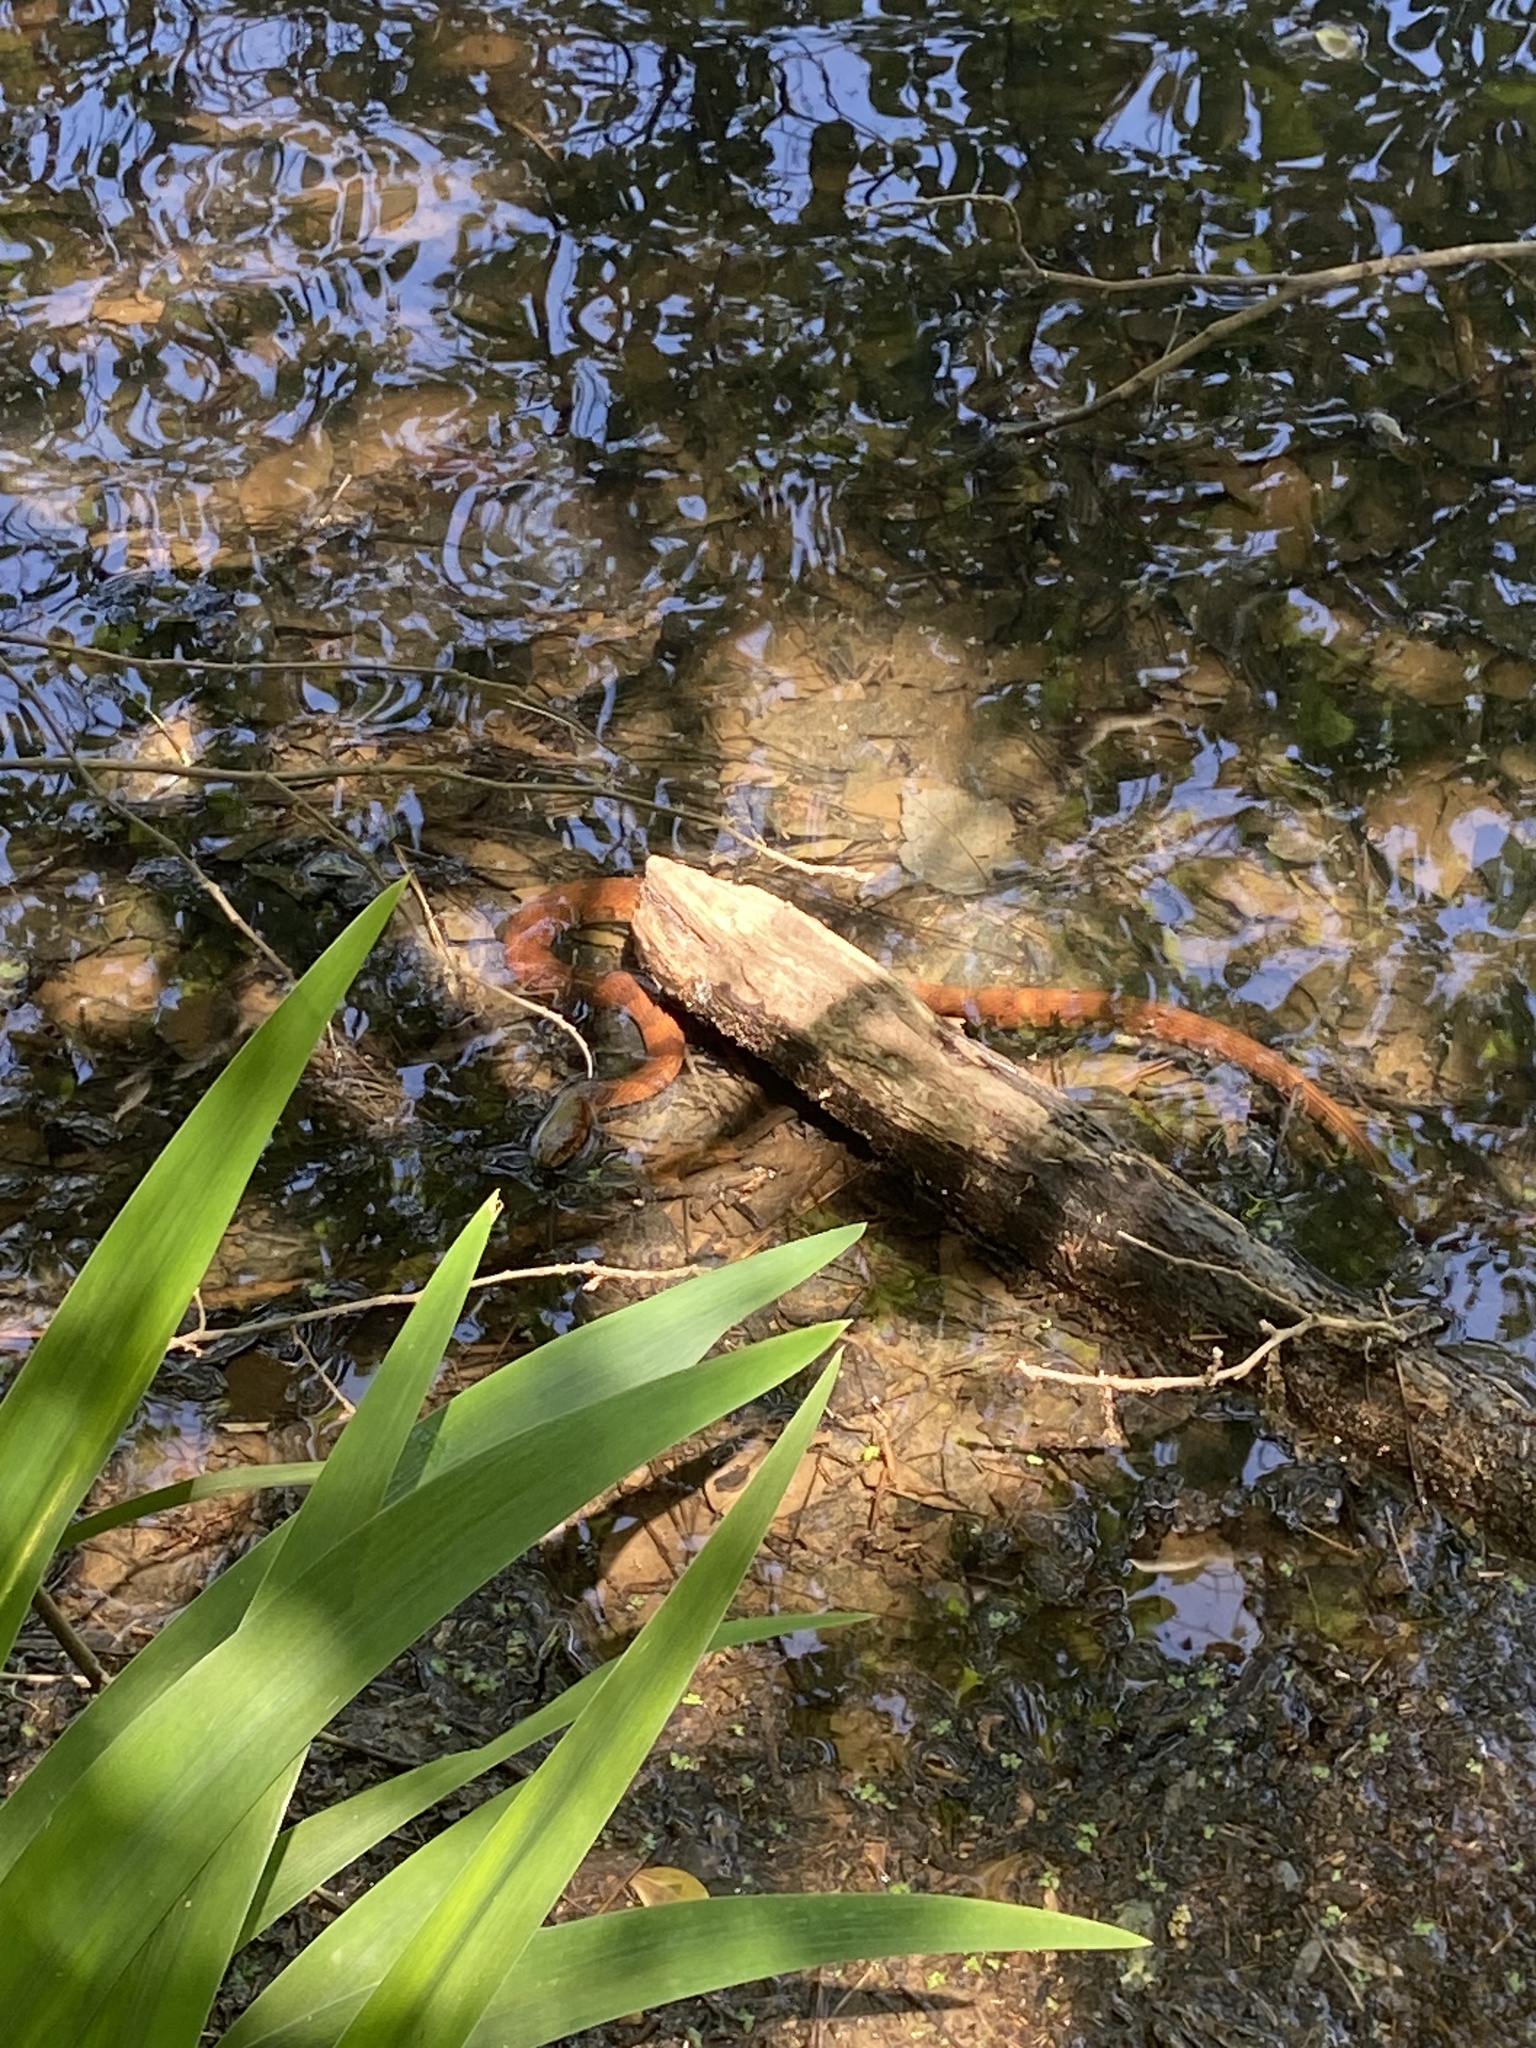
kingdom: Animalia
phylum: Chordata
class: Squamata
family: Colubridae
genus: Nerodia
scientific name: Nerodia sipedon
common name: Northern water snake
